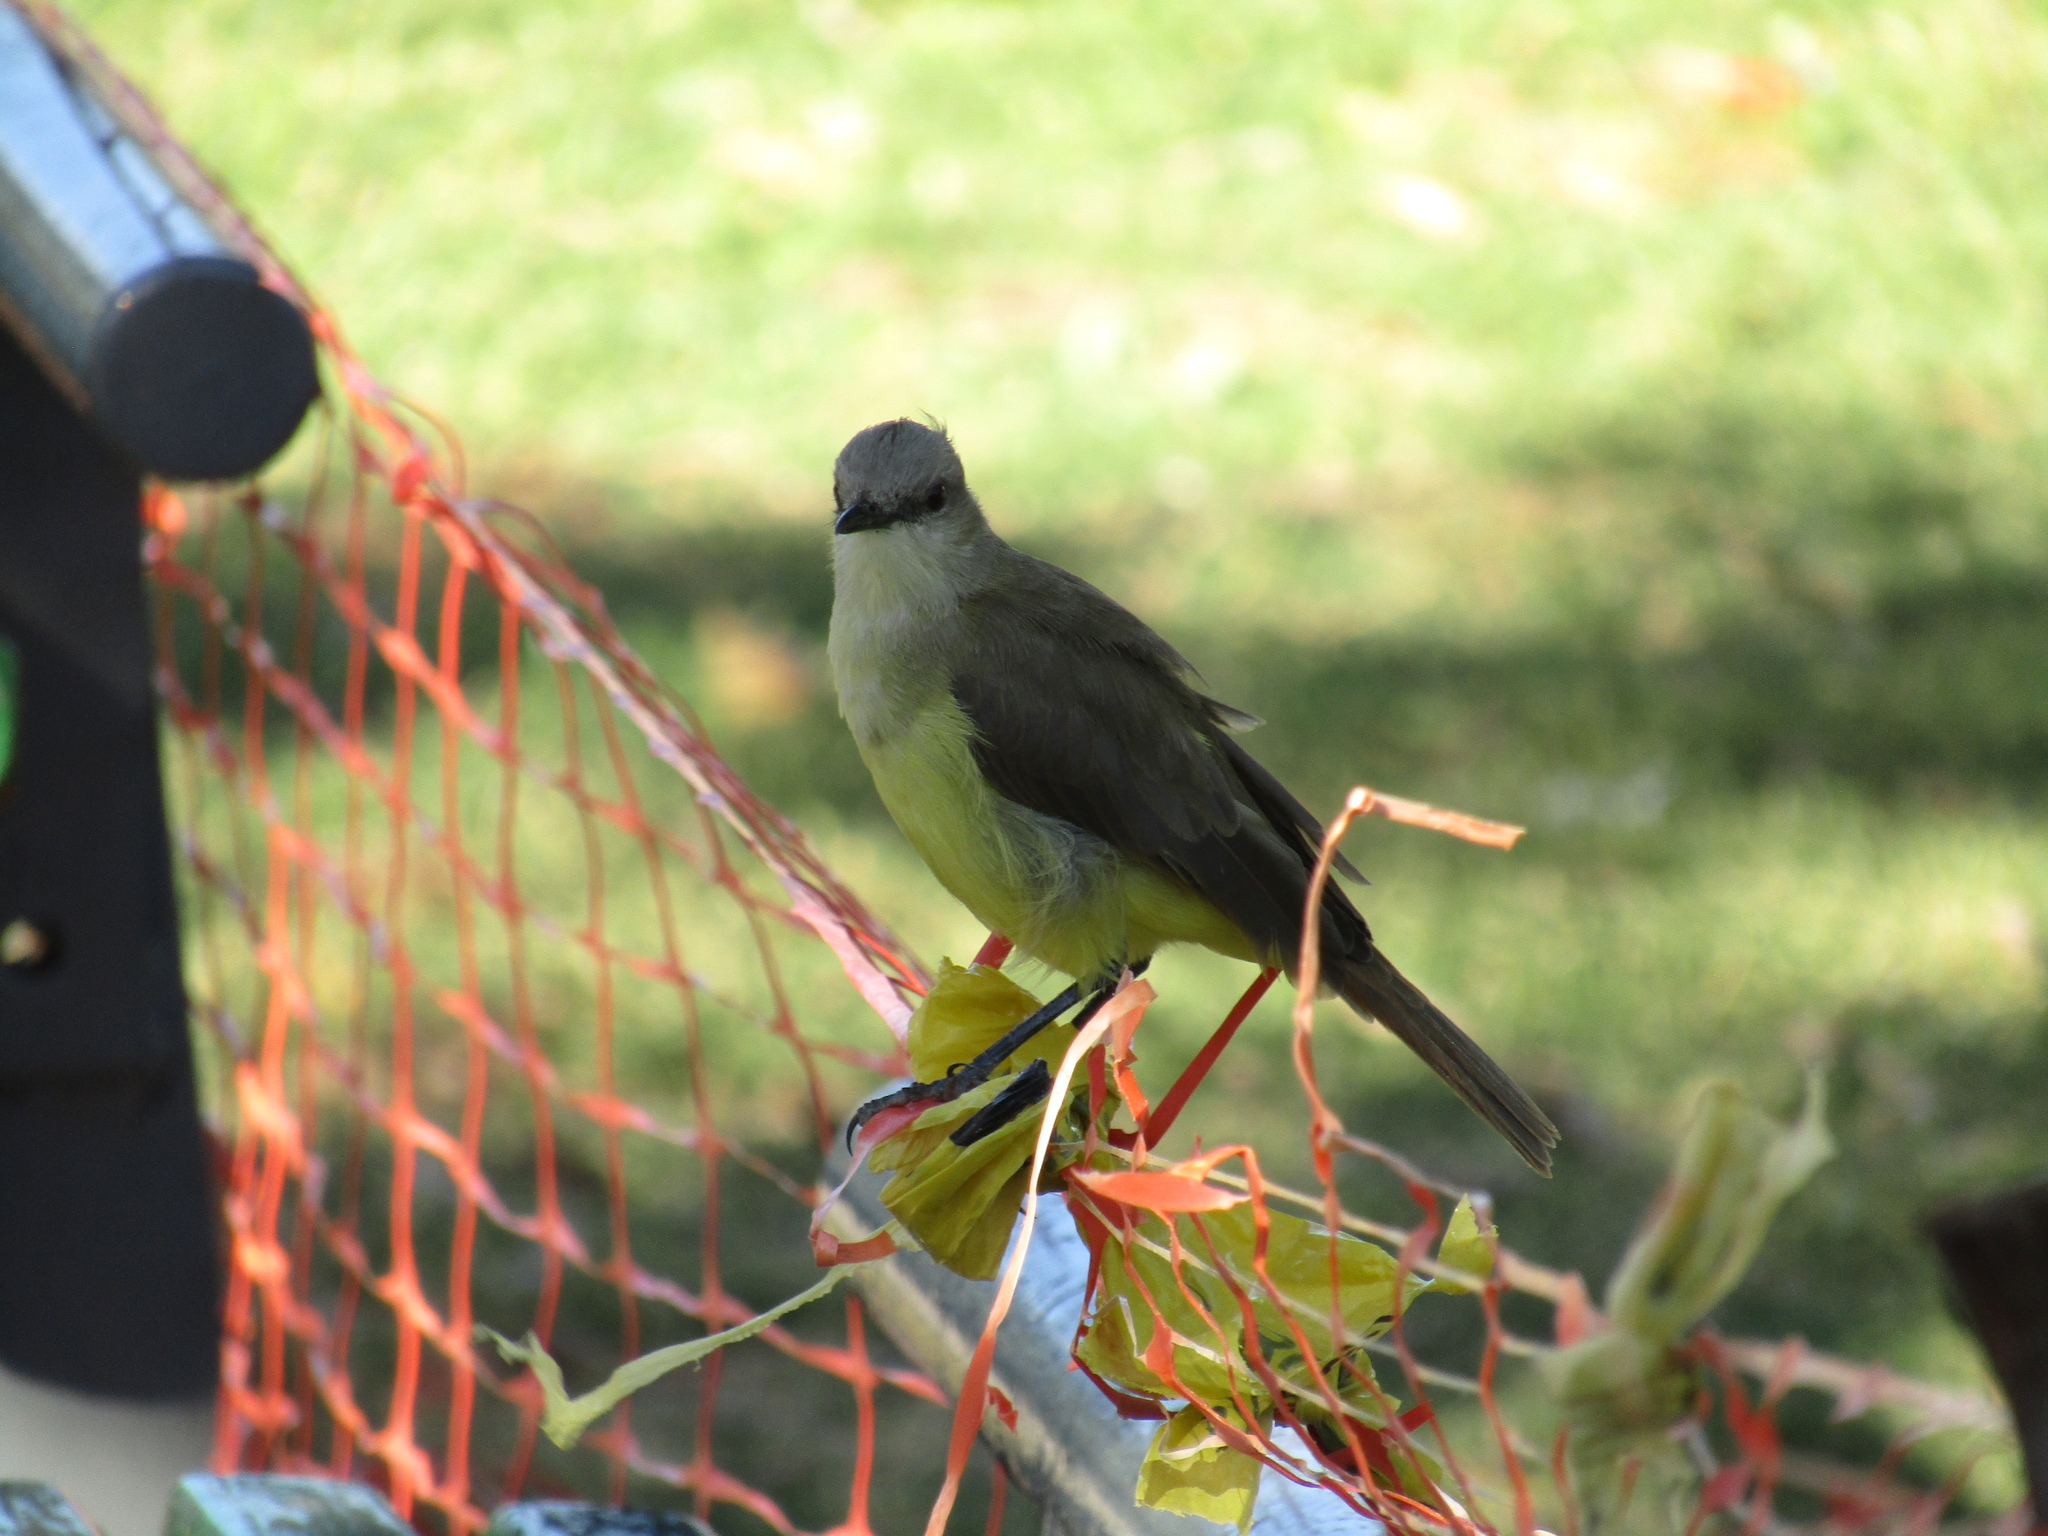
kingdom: Animalia
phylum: Chordata
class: Aves
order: Passeriformes
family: Tyrannidae
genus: Machetornis
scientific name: Machetornis rixosa
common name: Cattle tyrant
